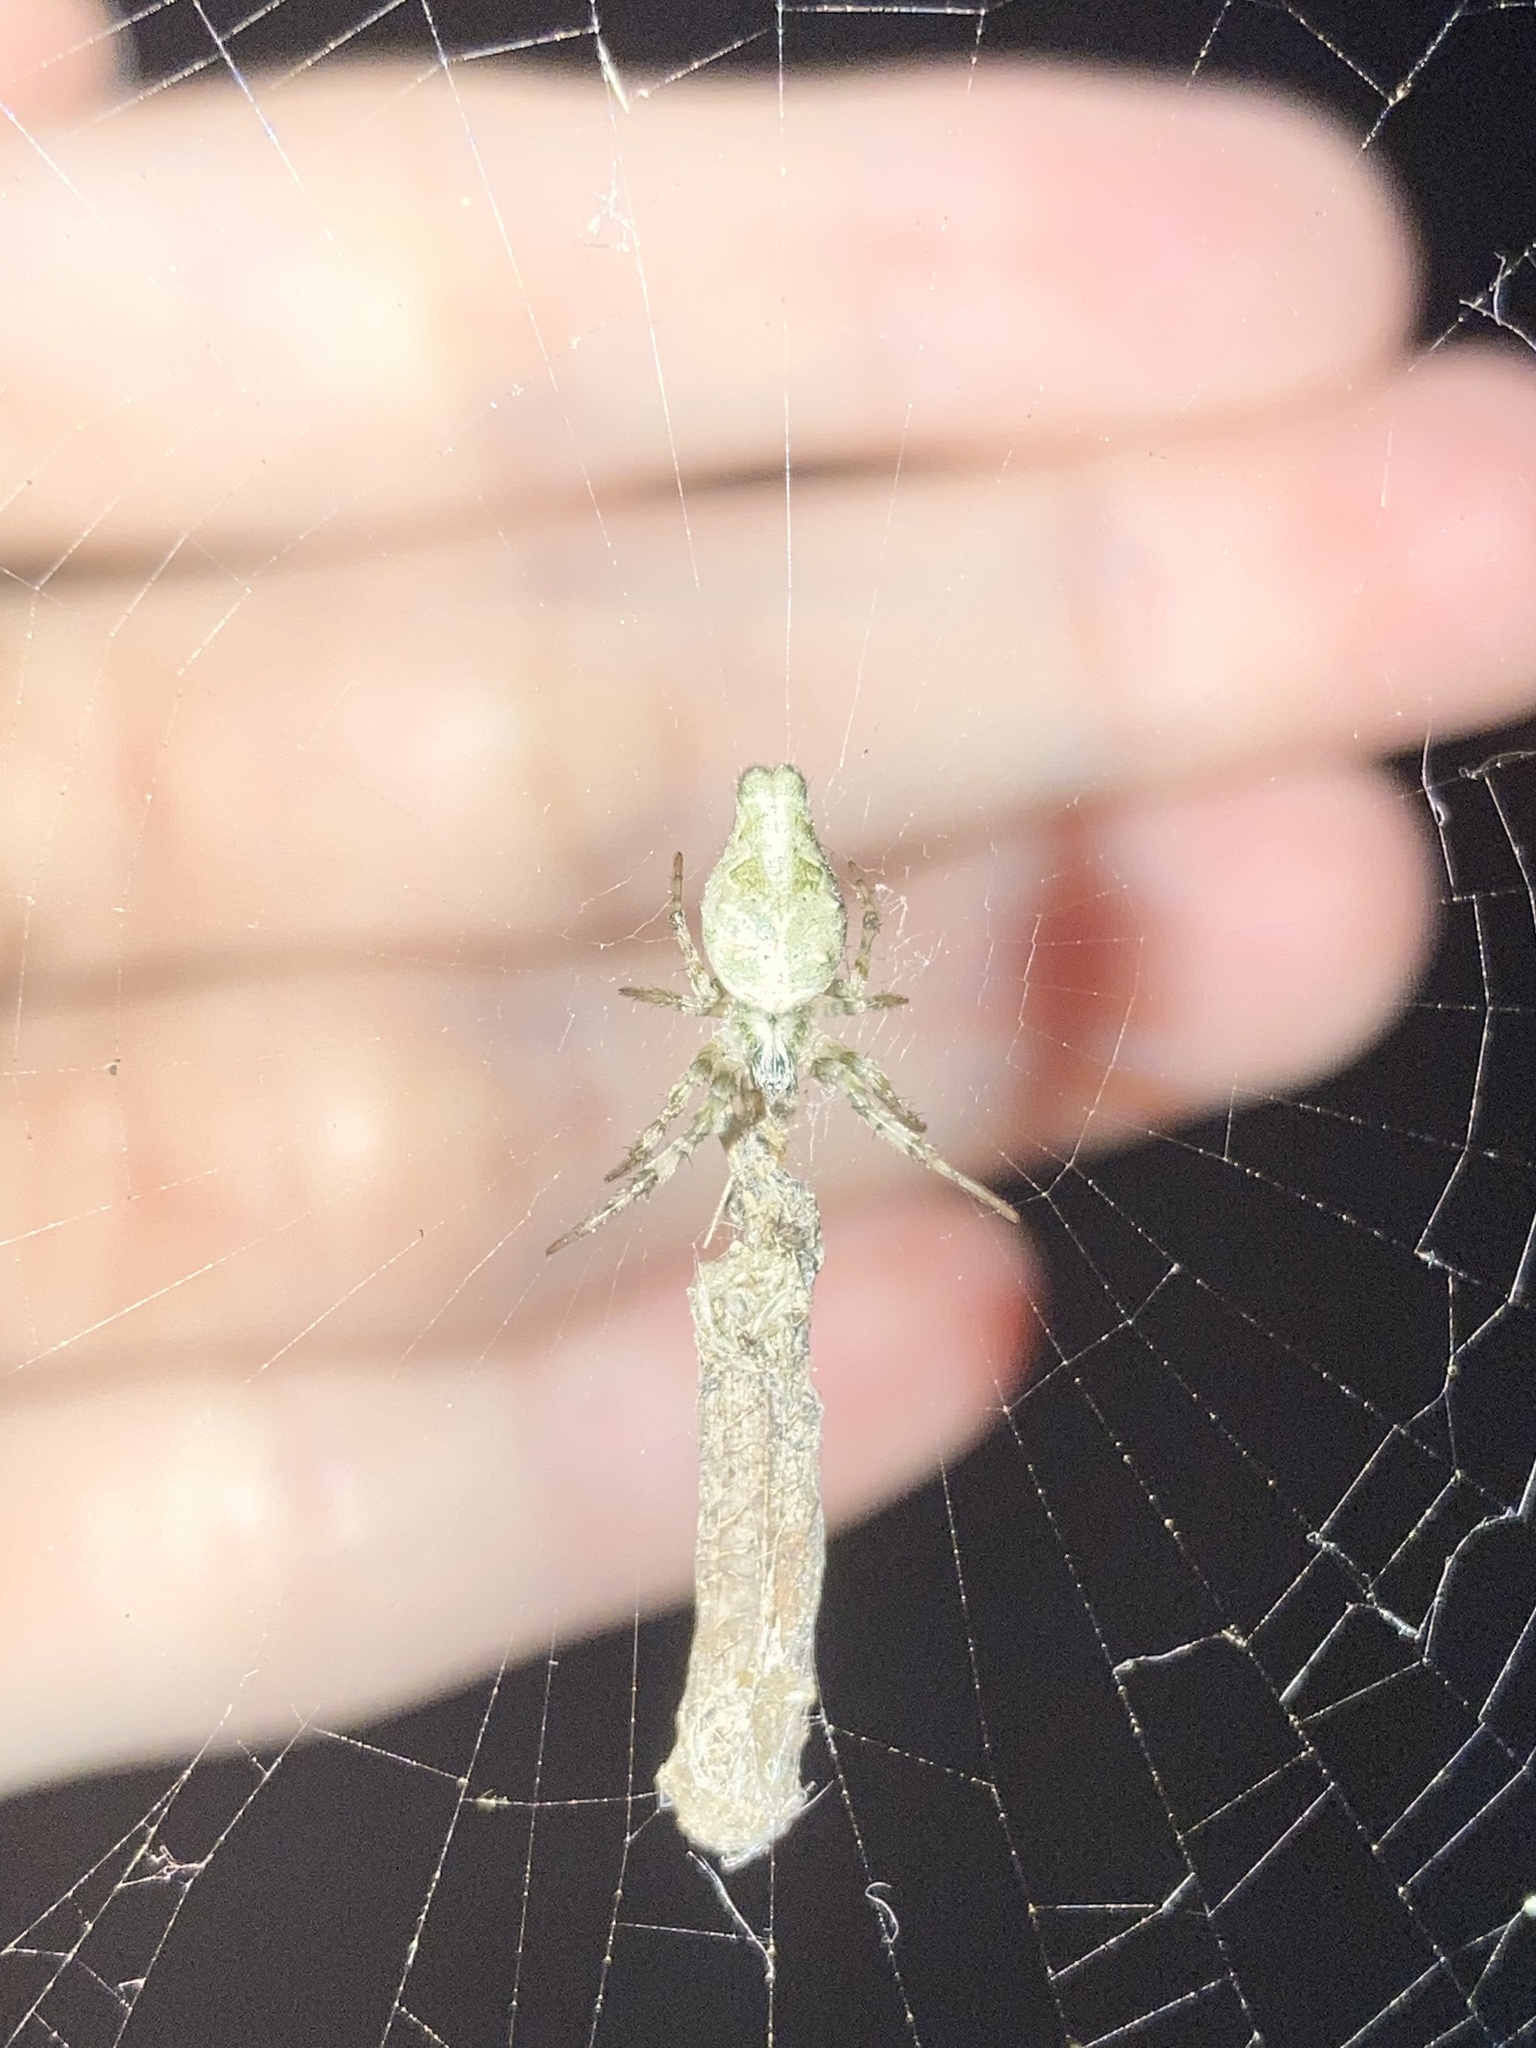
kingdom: Animalia
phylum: Arthropoda
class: Arachnida
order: Araneae
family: Araneidae
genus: Allocyclosa
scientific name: Allocyclosa bifurca
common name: Orb weavers
